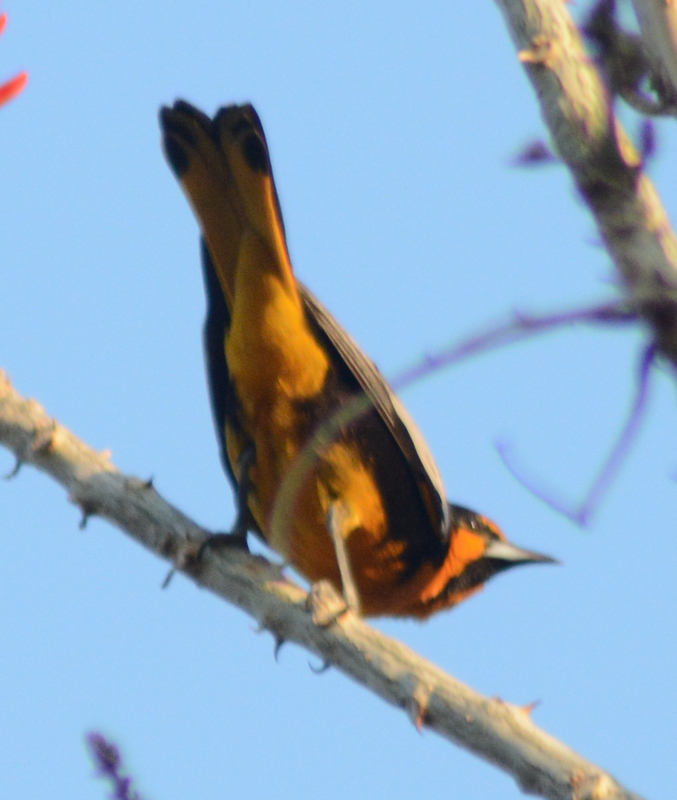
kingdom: Animalia
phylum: Chordata
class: Aves
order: Passeriformes
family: Icteridae
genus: Icterus
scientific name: Icterus abeillei
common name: Black-backed oriole
